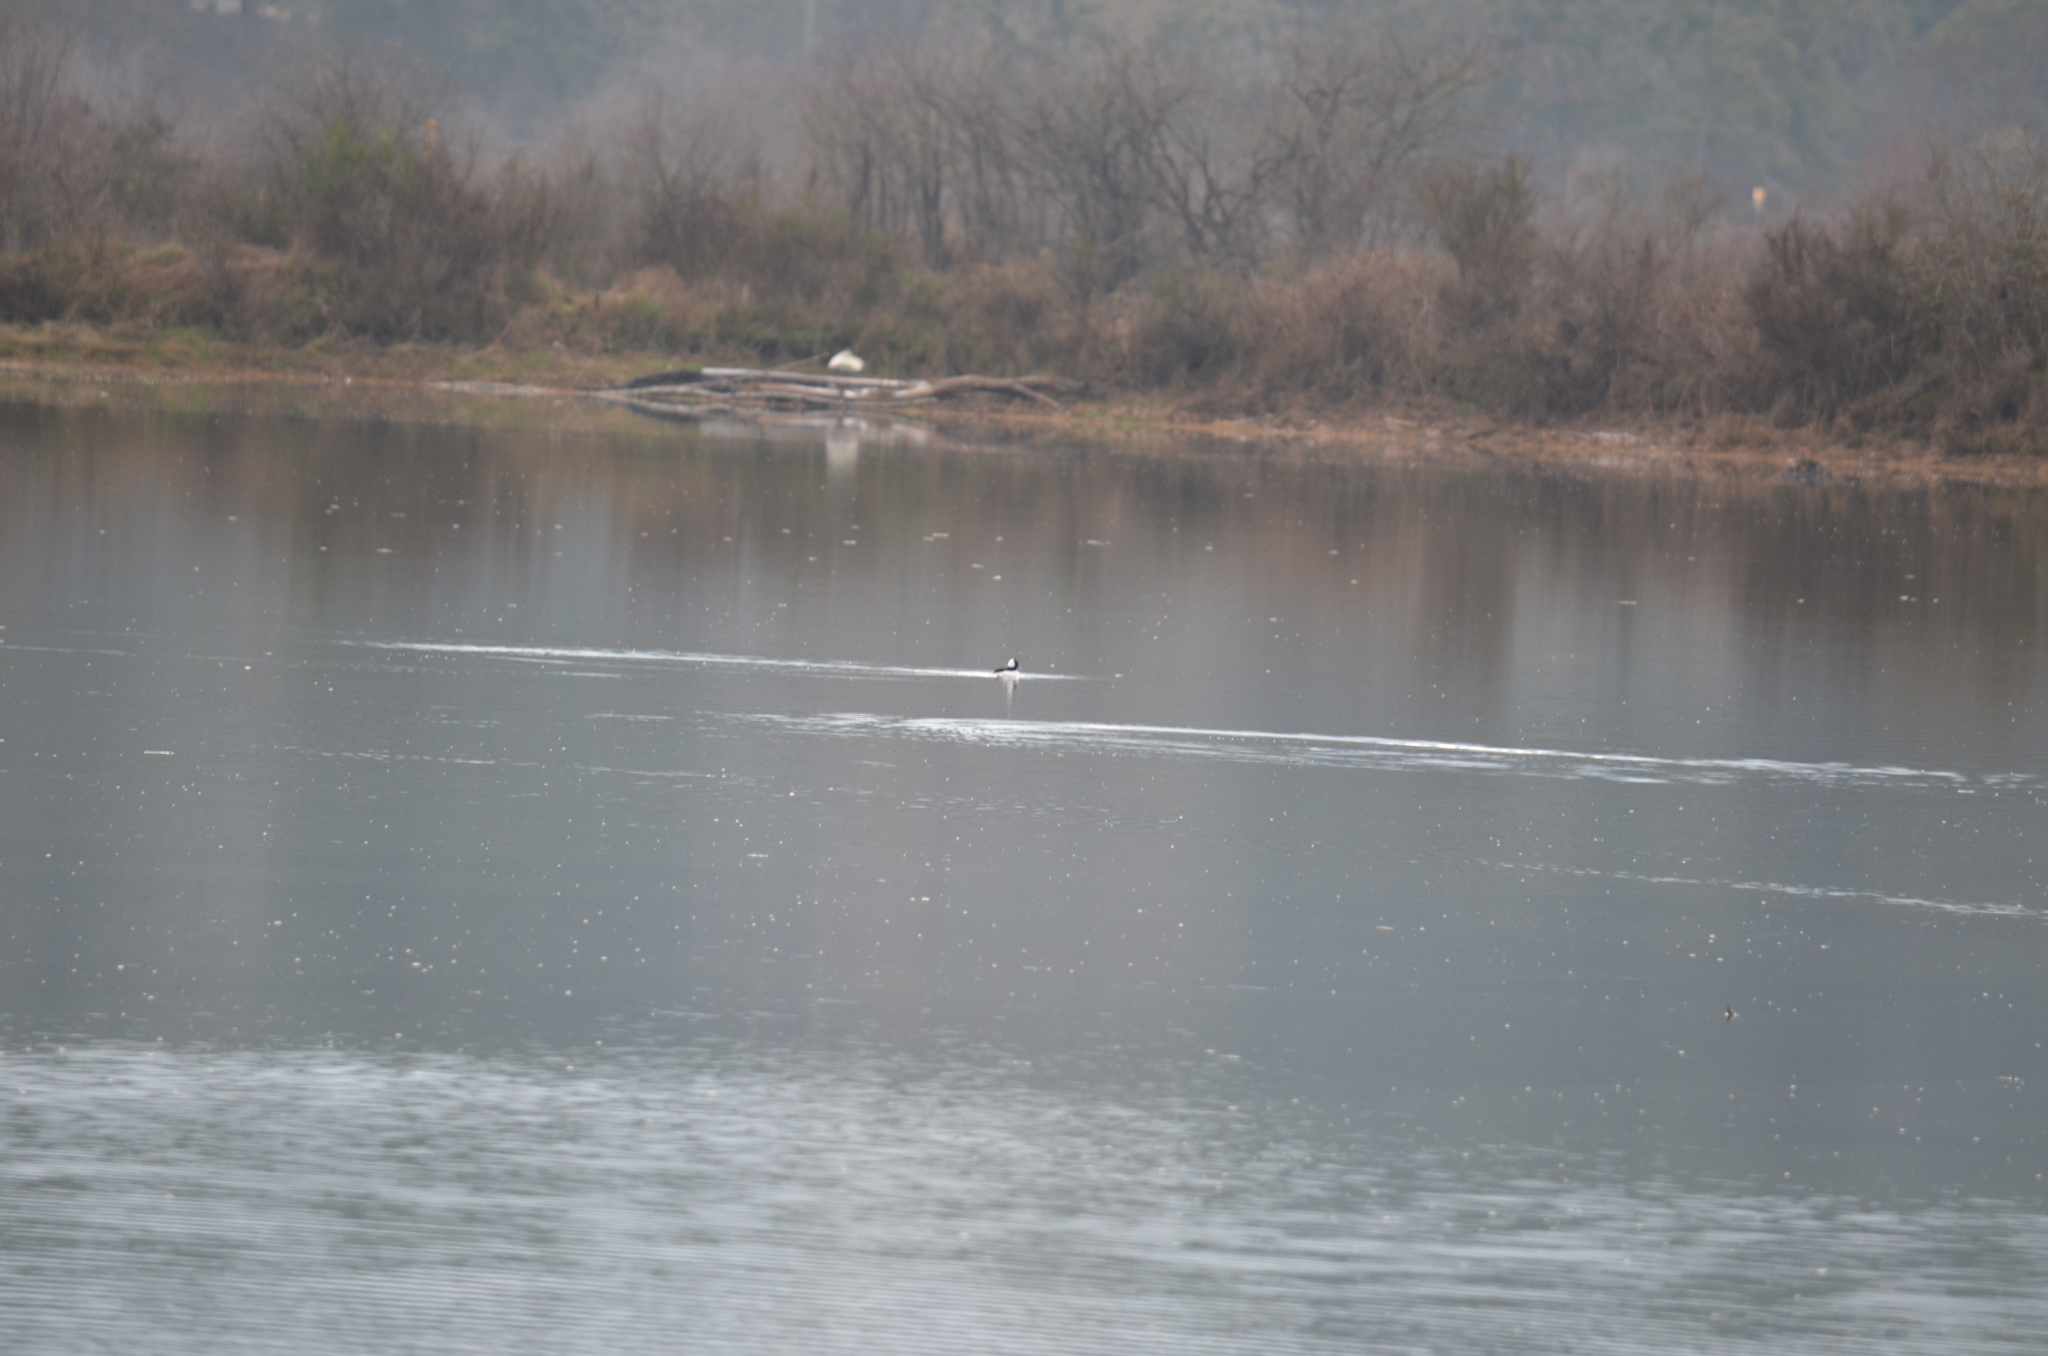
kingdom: Animalia
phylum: Chordata
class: Aves
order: Anseriformes
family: Anatidae
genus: Bucephala
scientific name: Bucephala albeola
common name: Bufflehead
